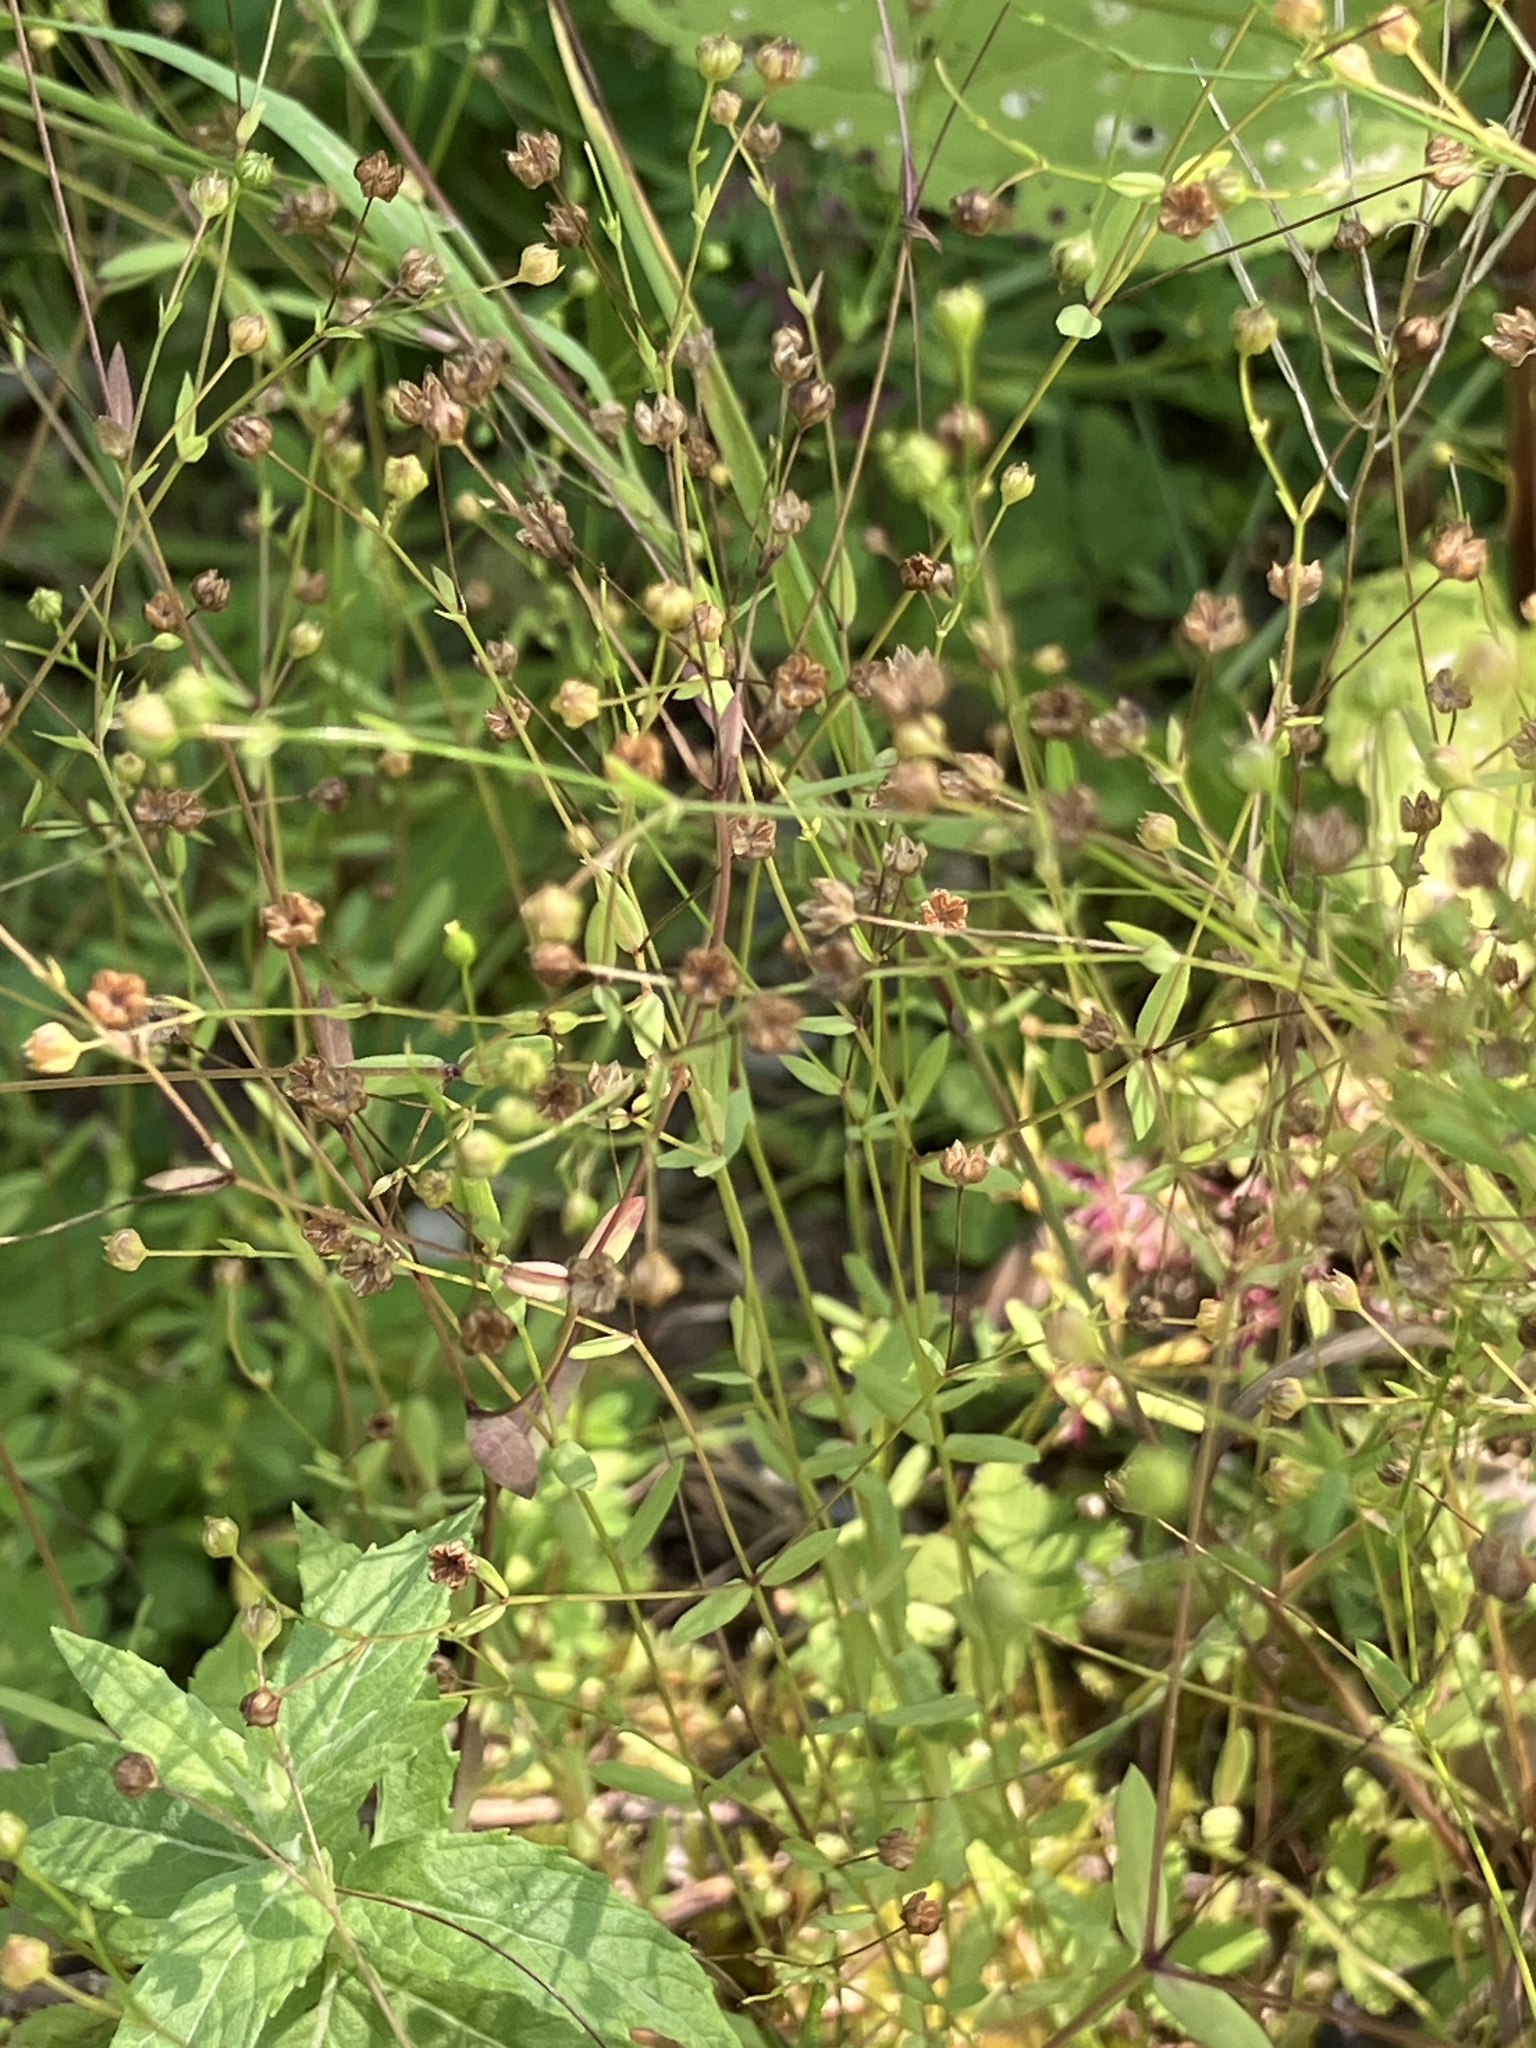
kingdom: Plantae
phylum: Tracheophyta
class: Magnoliopsida
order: Malpighiales
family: Linaceae
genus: Linum
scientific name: Linum catharticum
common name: Fairy flax
